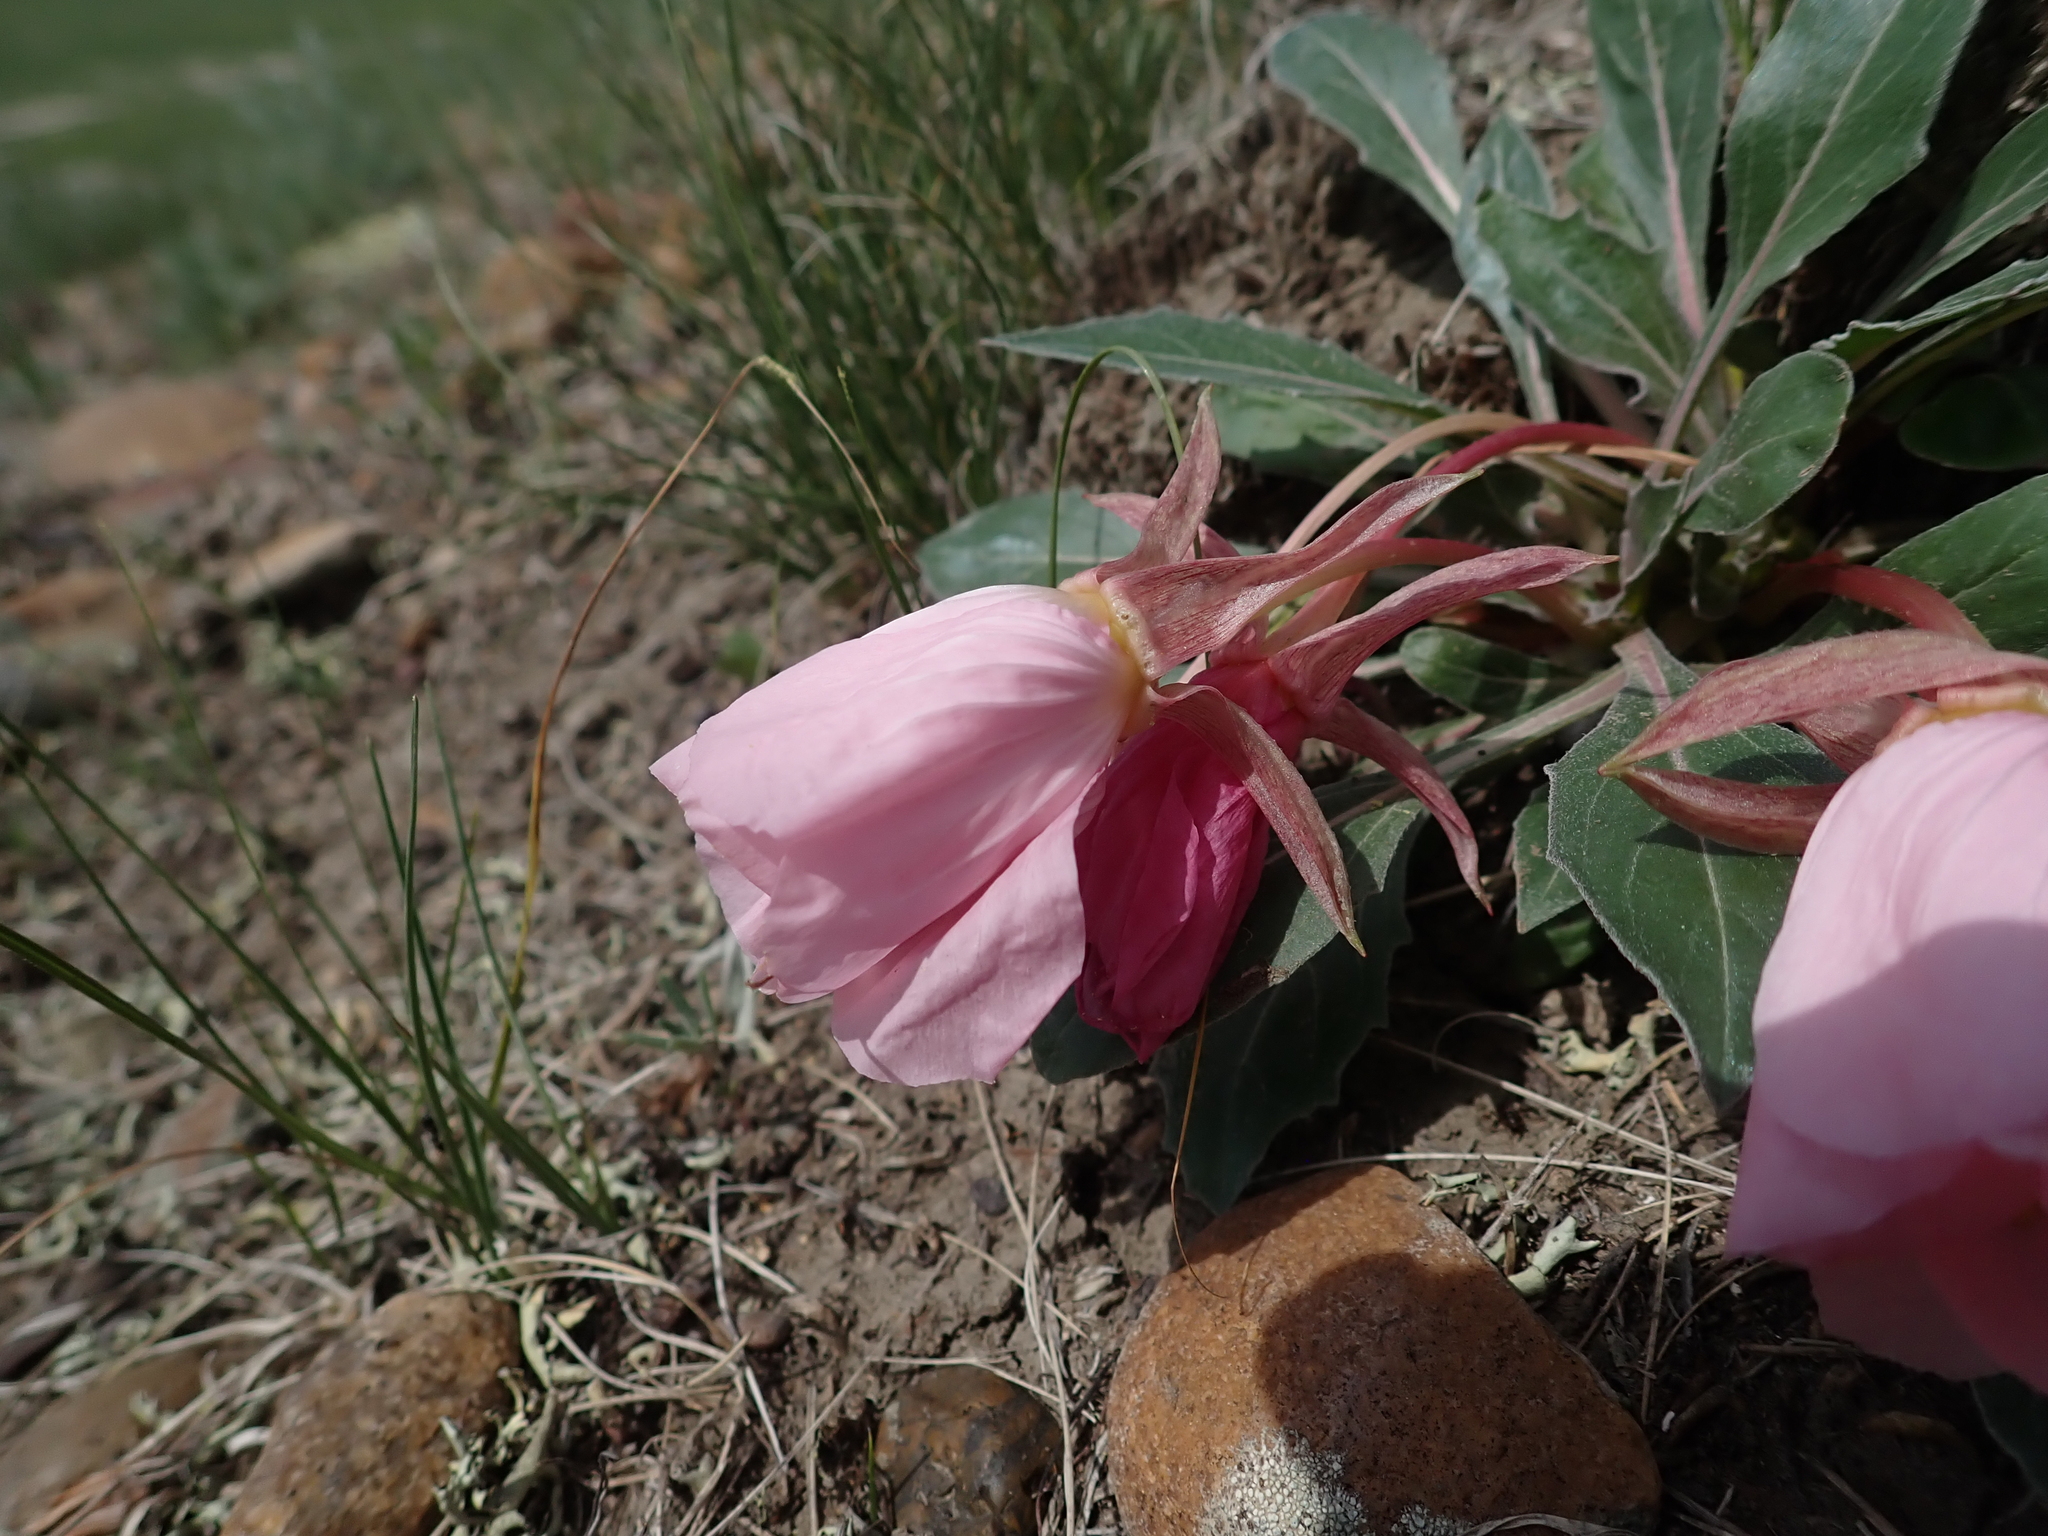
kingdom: Plantae
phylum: Tracheophyta
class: Magnoliopsida
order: Myrtales
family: Onagraceae
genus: Oenothera
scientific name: Oenothera cespitosa
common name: Tufted evening-primrose
